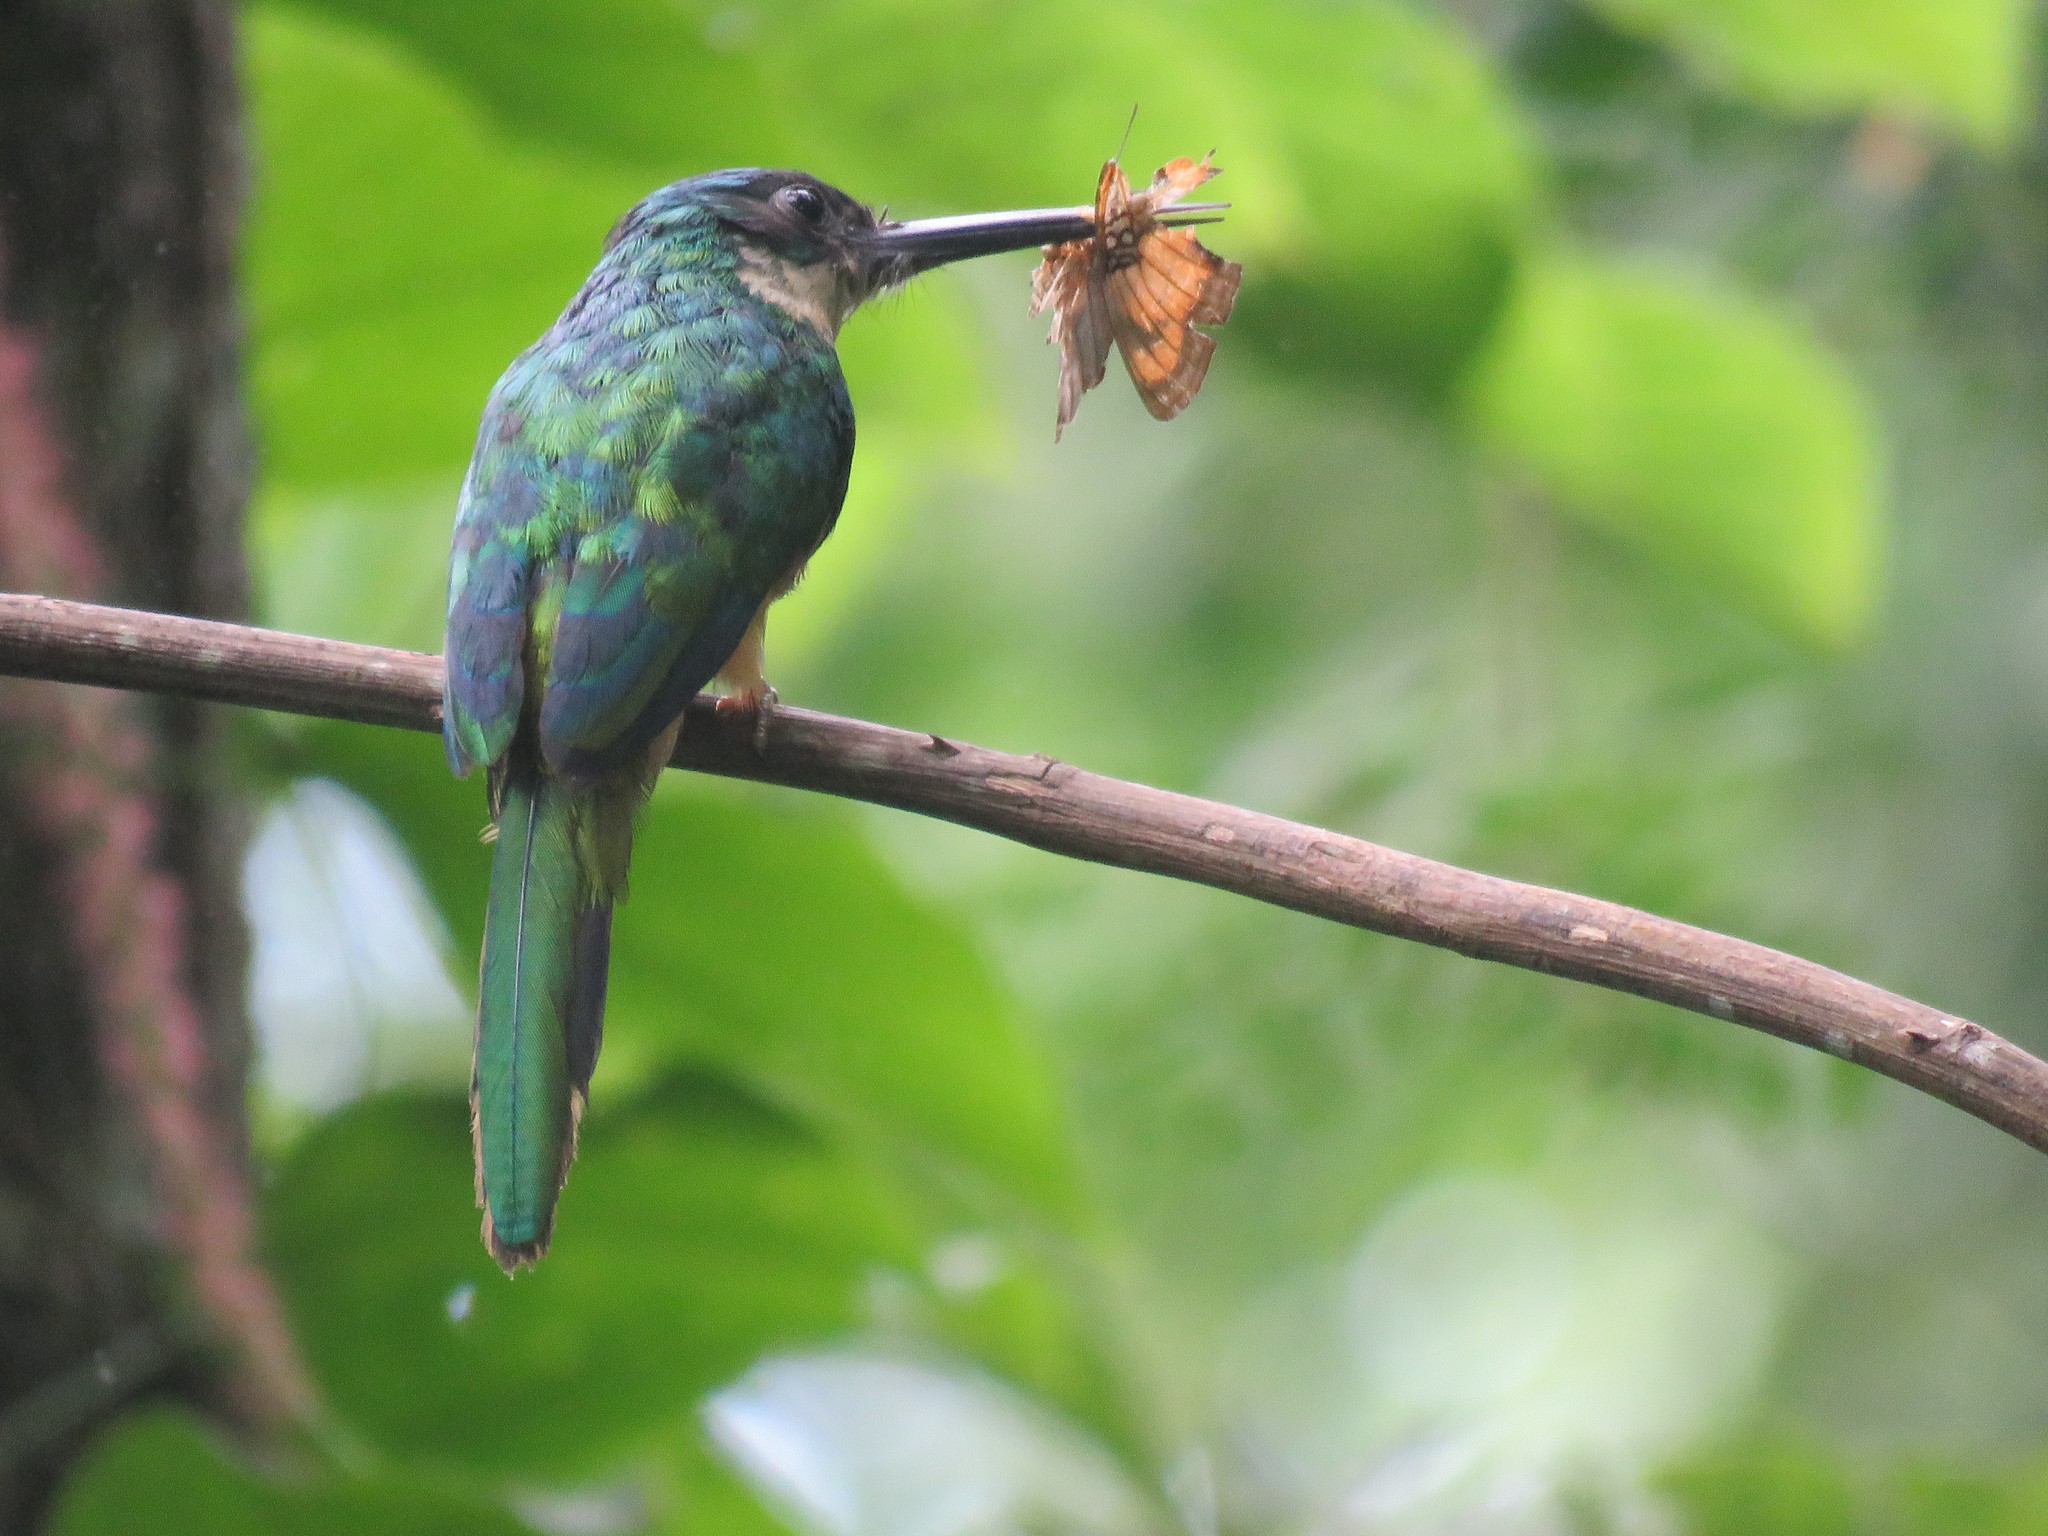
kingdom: Animalia
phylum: Chordata
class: Aves
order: Piciformes
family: Galbulidae
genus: Galbula
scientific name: Galbula leucogastra
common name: Bronzy jacamar
